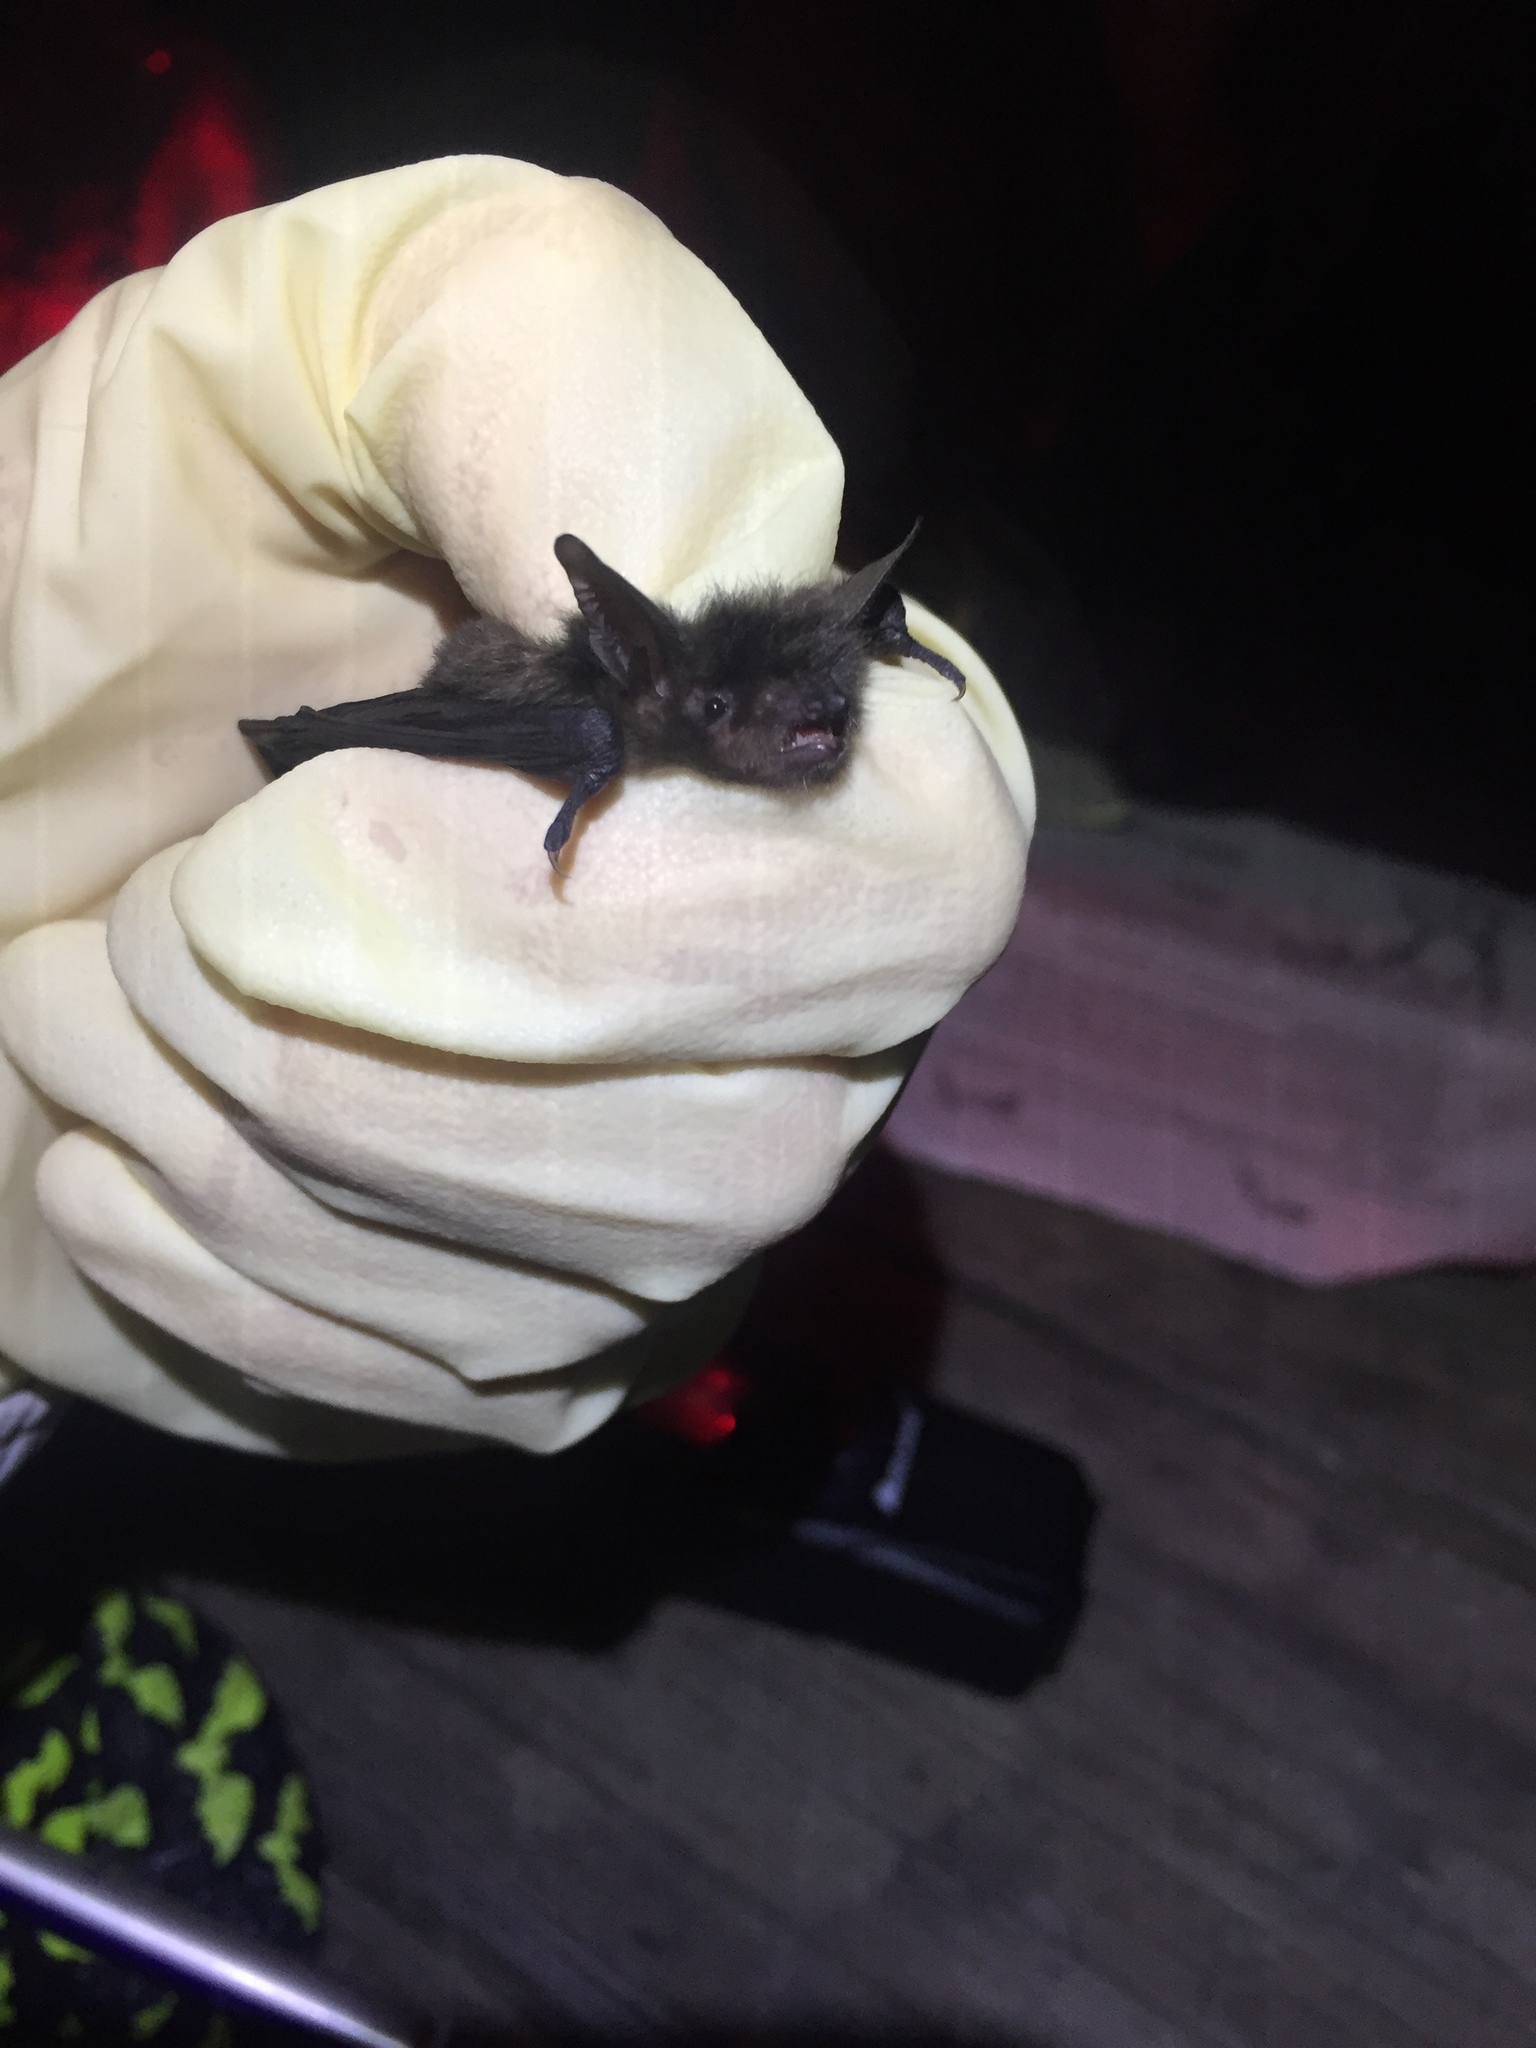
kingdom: Animalia
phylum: Chordata
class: Mammalia
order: Chiroptera
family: Vespertilionidae
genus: Myotis
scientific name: Myotis yumanensis
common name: Yuma myotis
